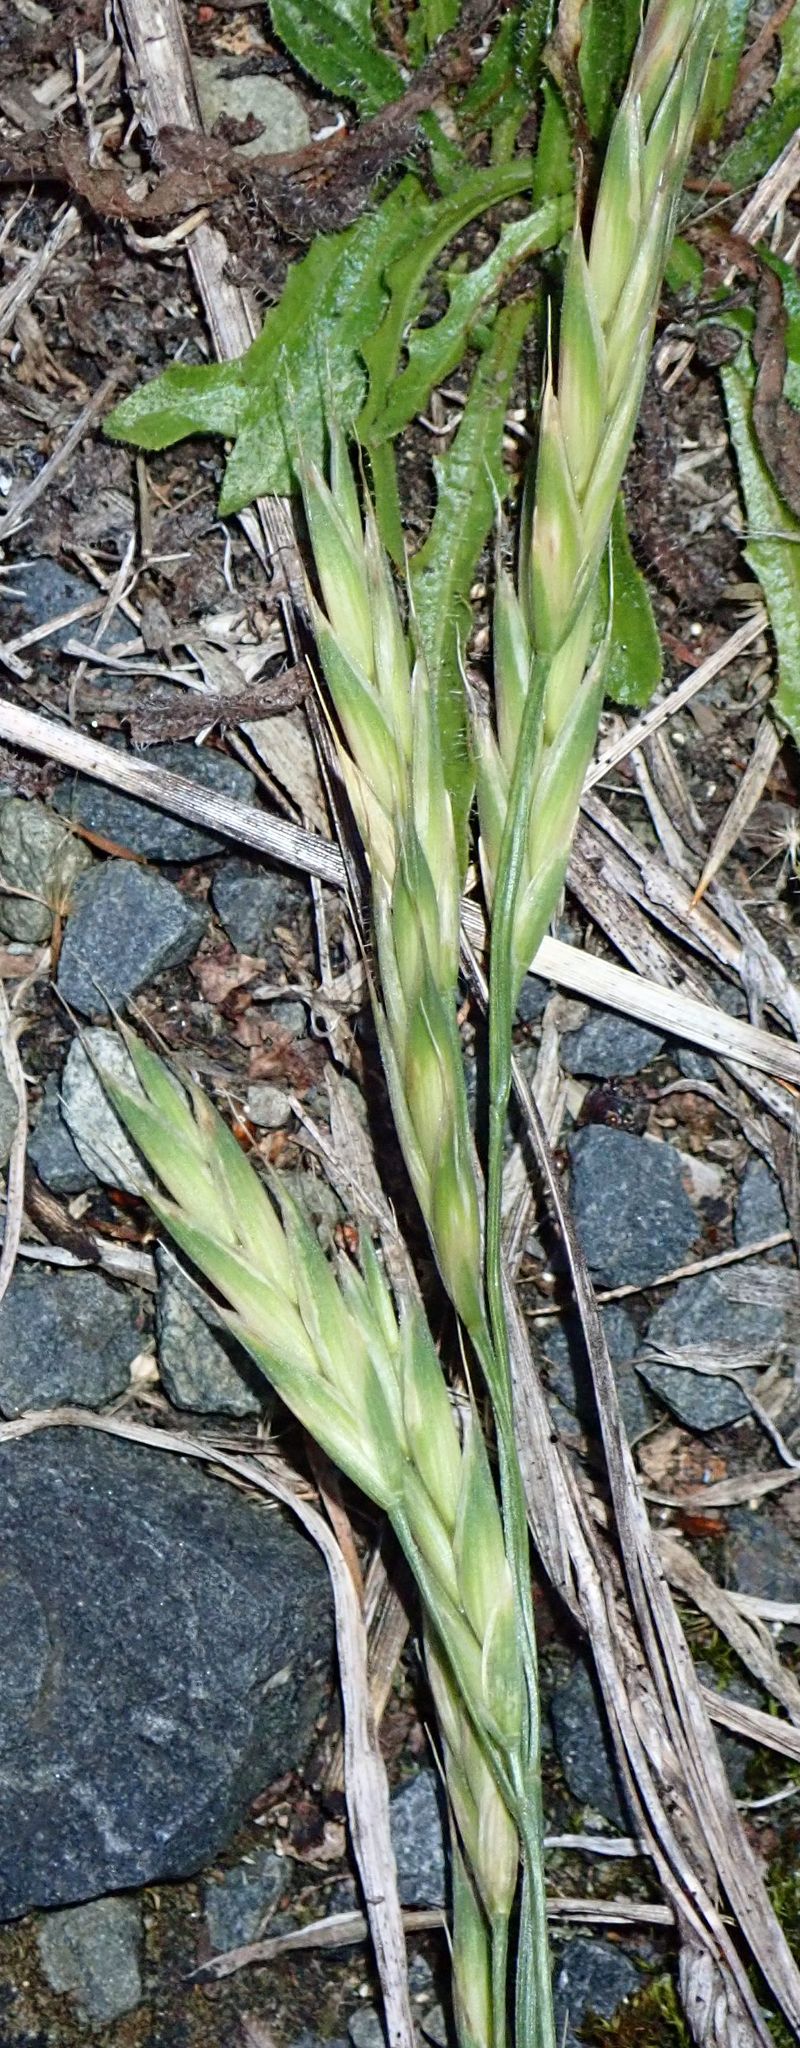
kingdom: Plantae
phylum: Tracheophyta
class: Liliopsida
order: Poales
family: Poaceae
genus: Bromus
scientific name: Bromus catharticus
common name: Rescuegrass
